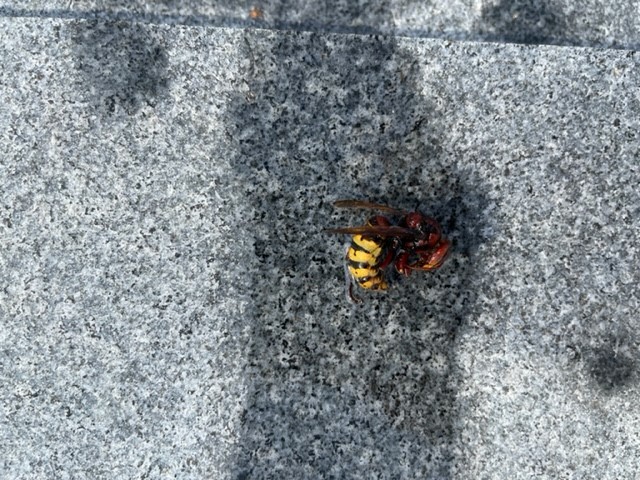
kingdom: Animalia
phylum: Arthropoda
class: Insecta
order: Hymenoptera
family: Vespidae
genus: Vespa
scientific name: Vespa crabro
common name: Hornet
